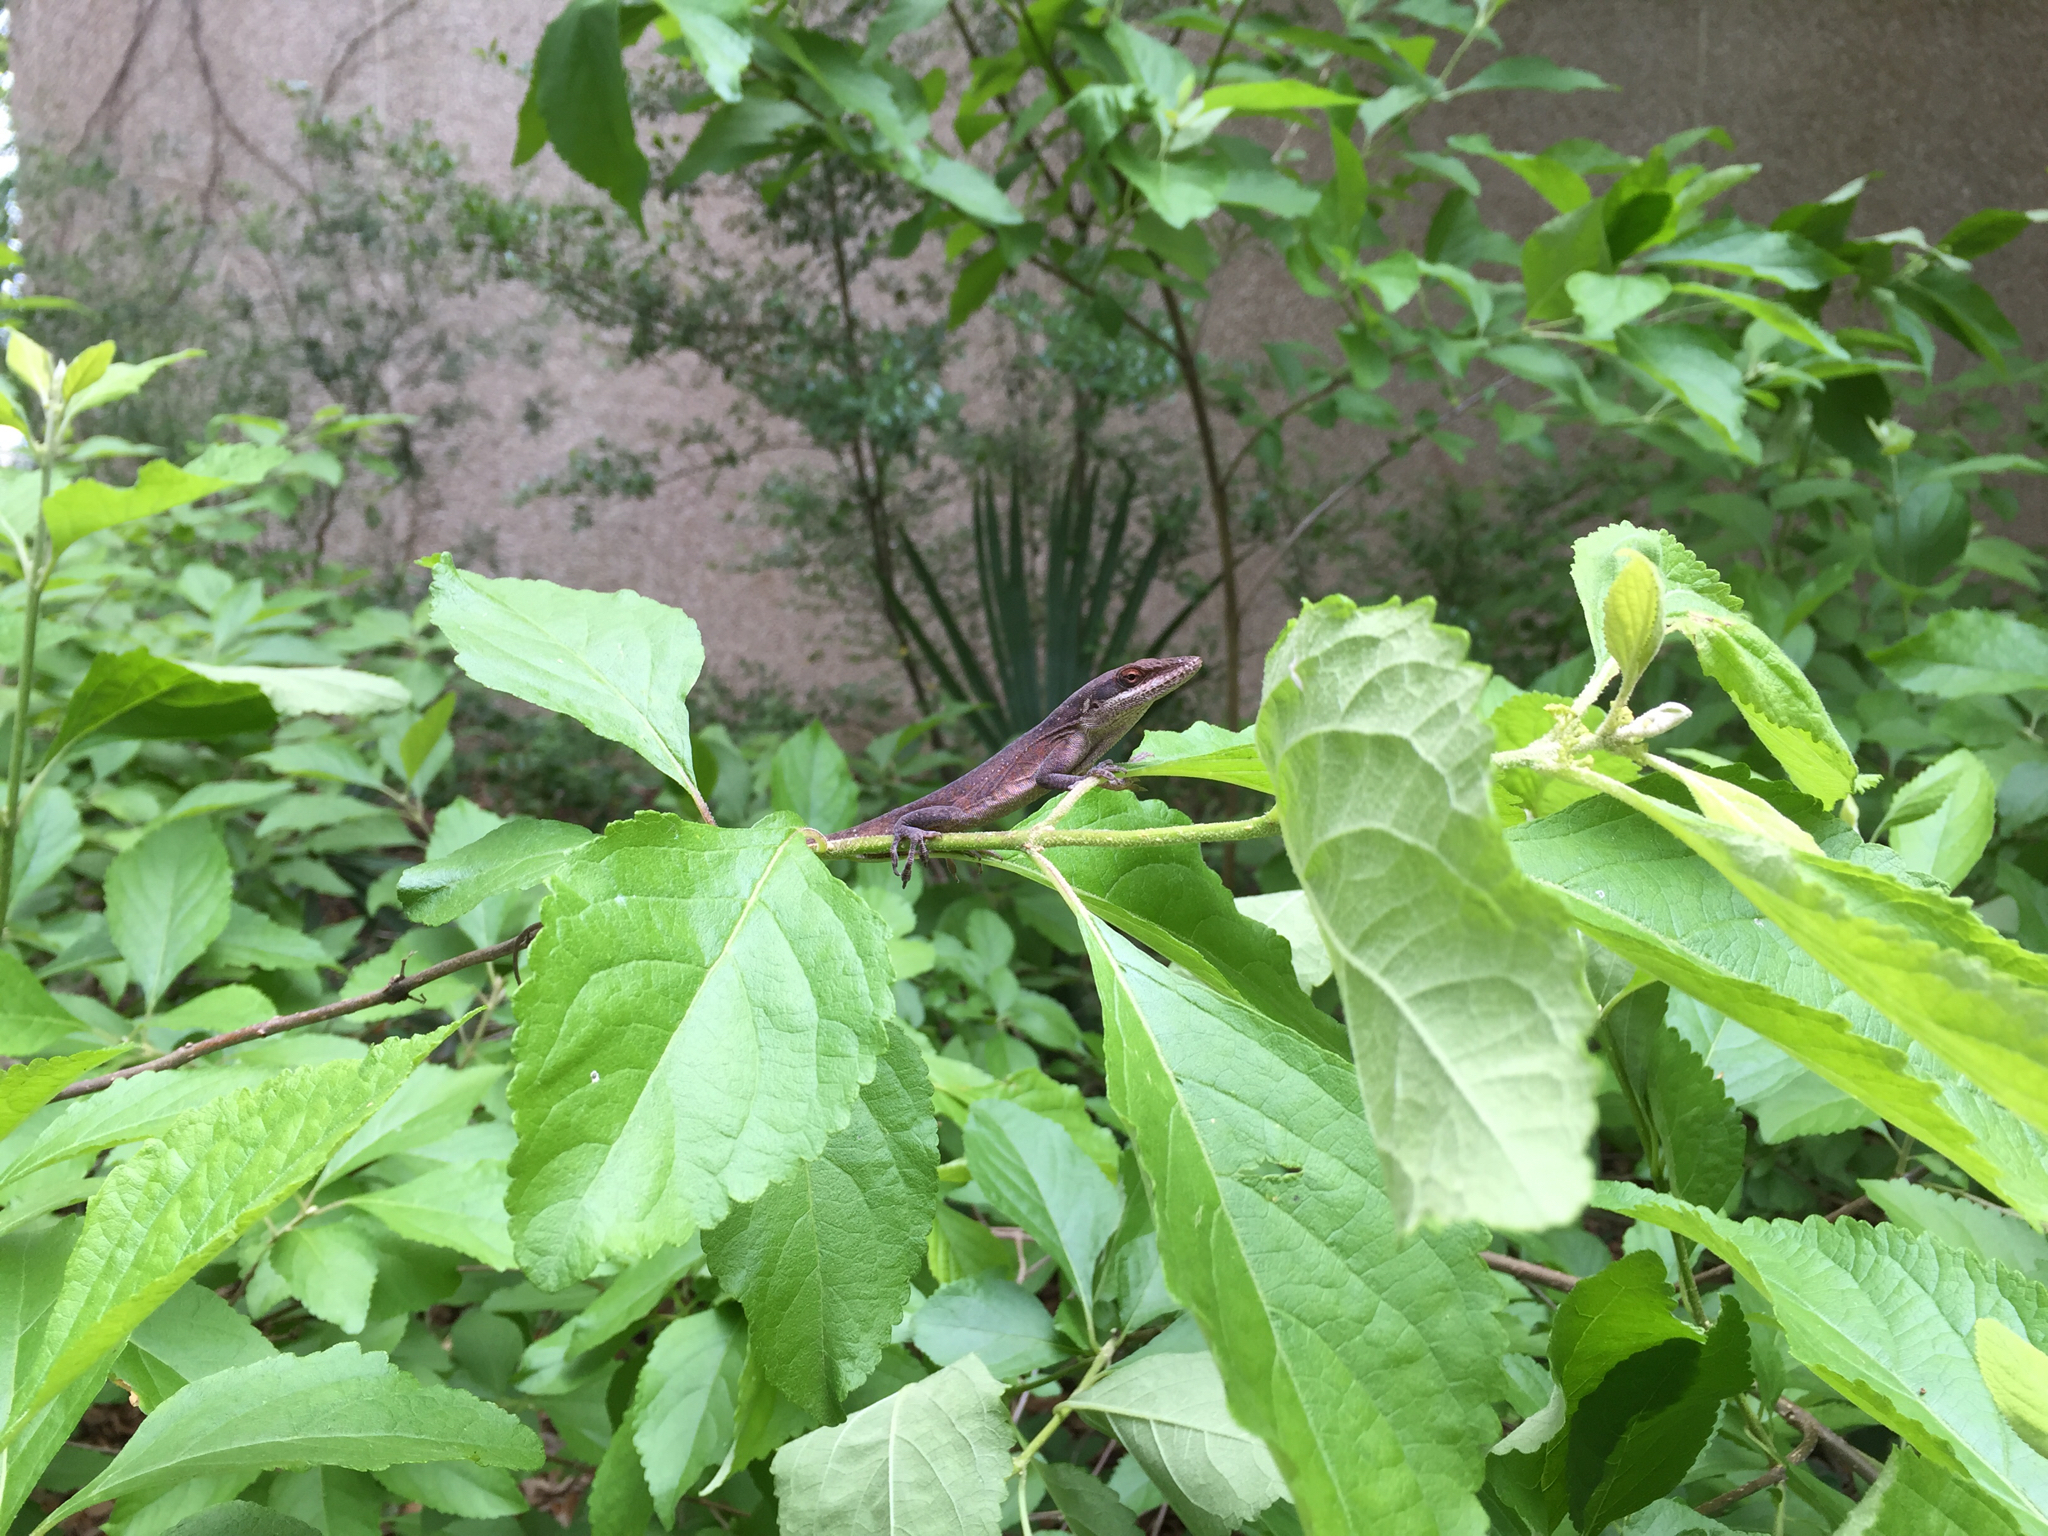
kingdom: Animalia
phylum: Chordata
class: Squamata
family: Dactyloidae
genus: Anolis
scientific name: Anolis carolinensis
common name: Green anole
